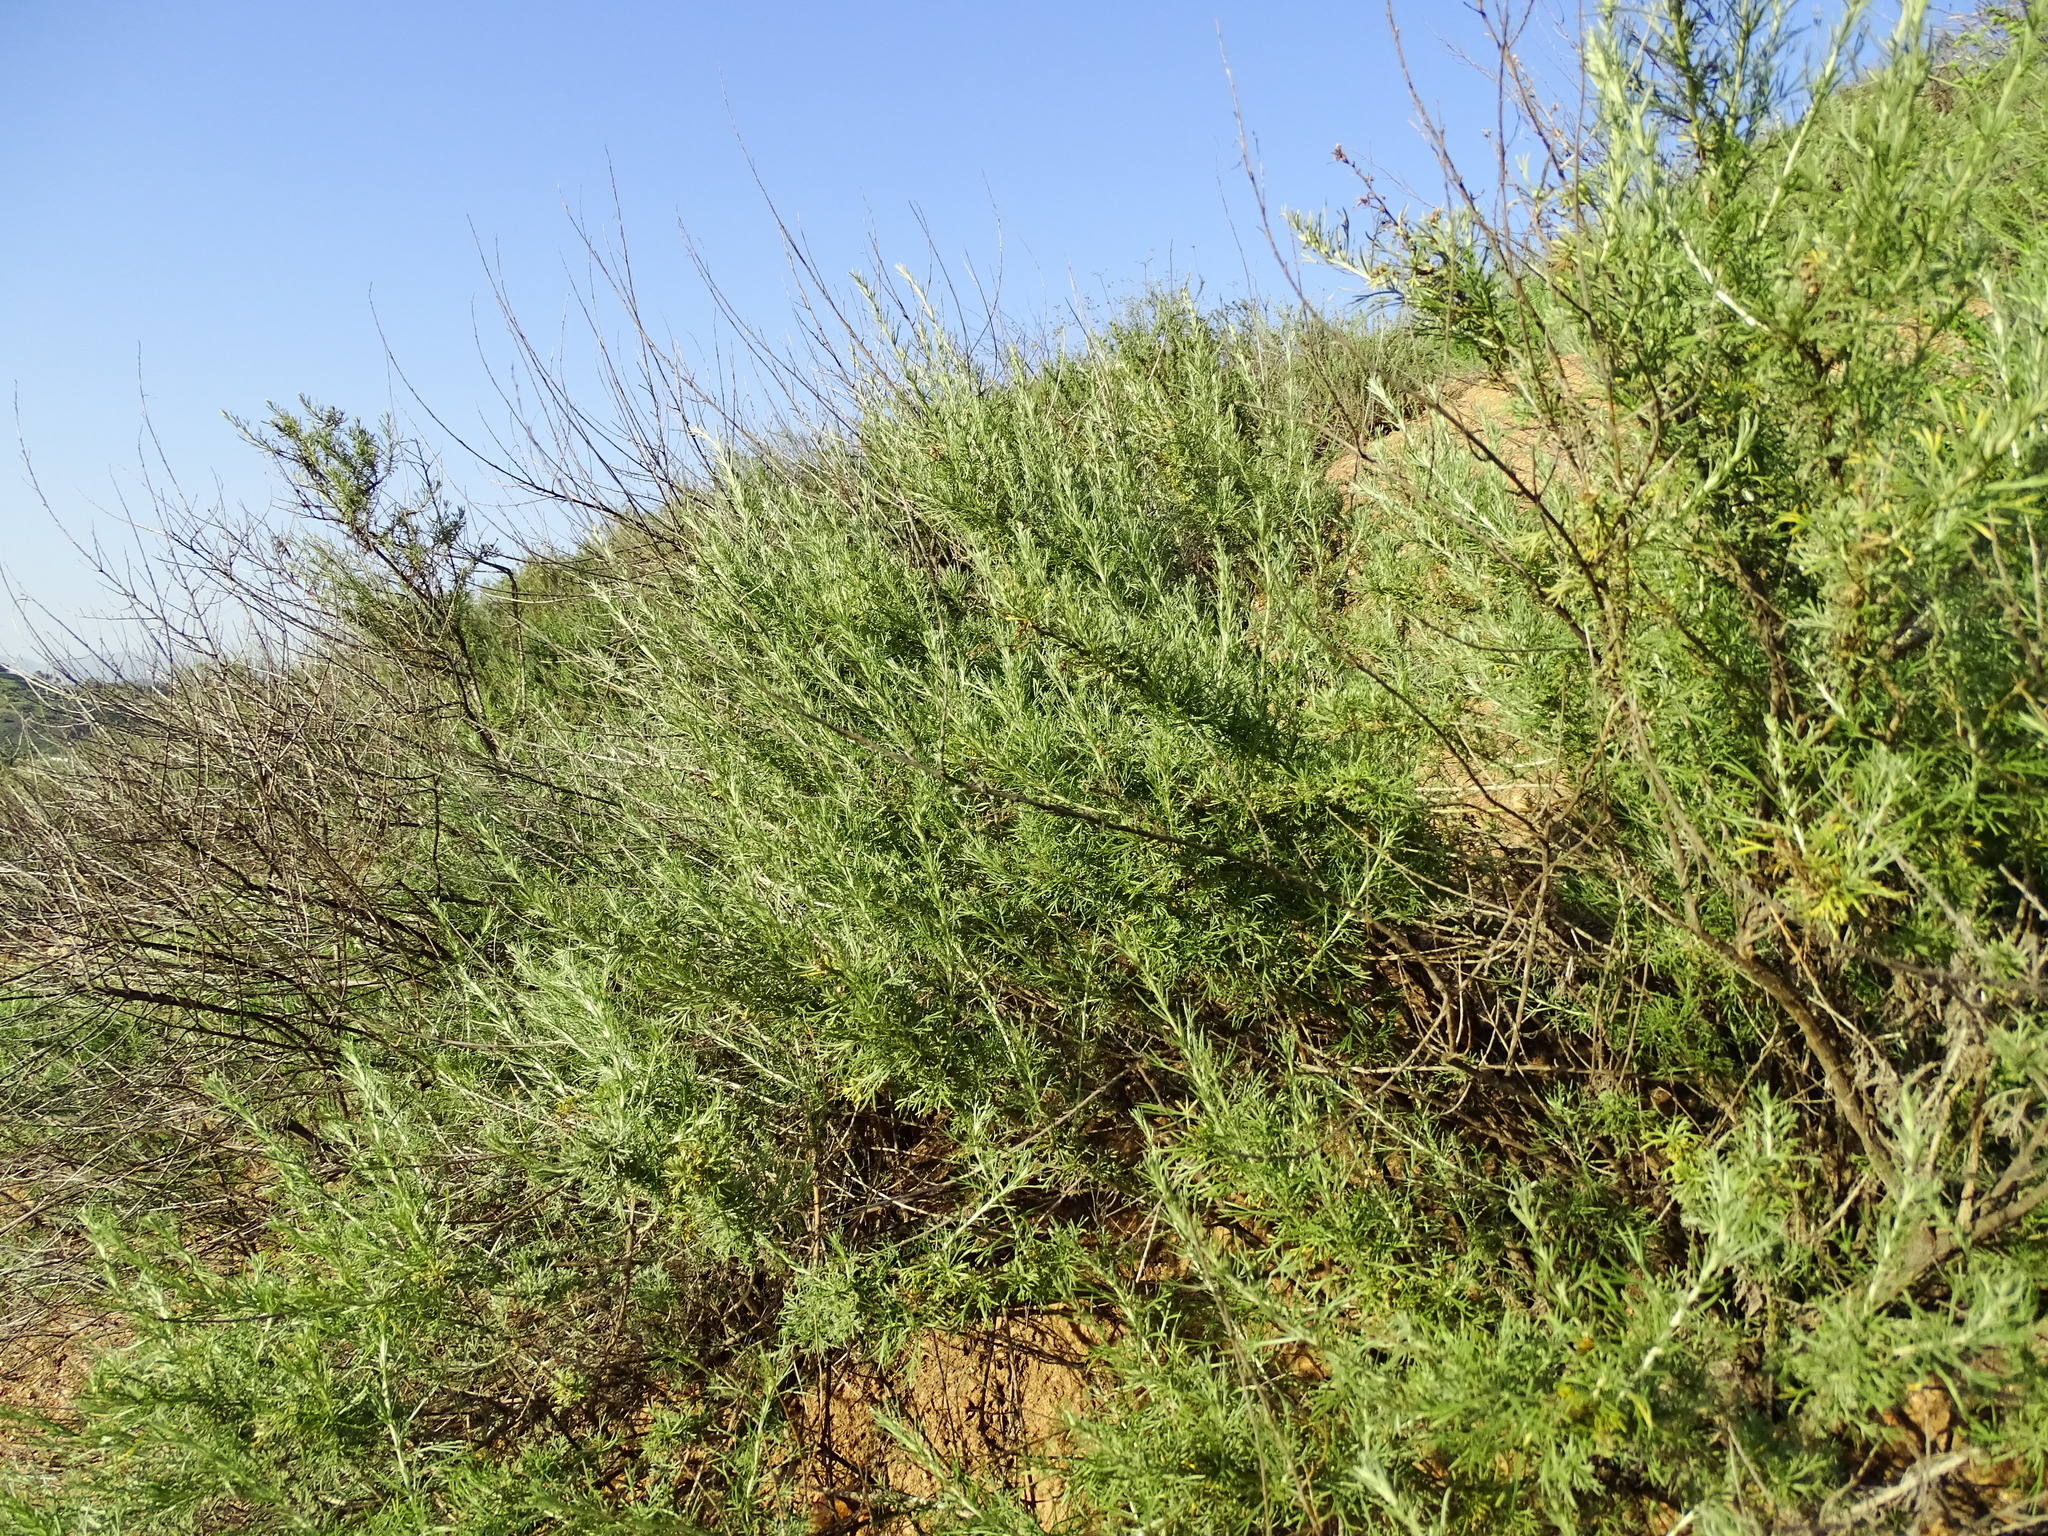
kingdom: Plantae
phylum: Tracheophyta
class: Magnoliopsida
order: Asterales
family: Asteraceae
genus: Artemisia
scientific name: Artemisia californica
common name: California sagebrush
